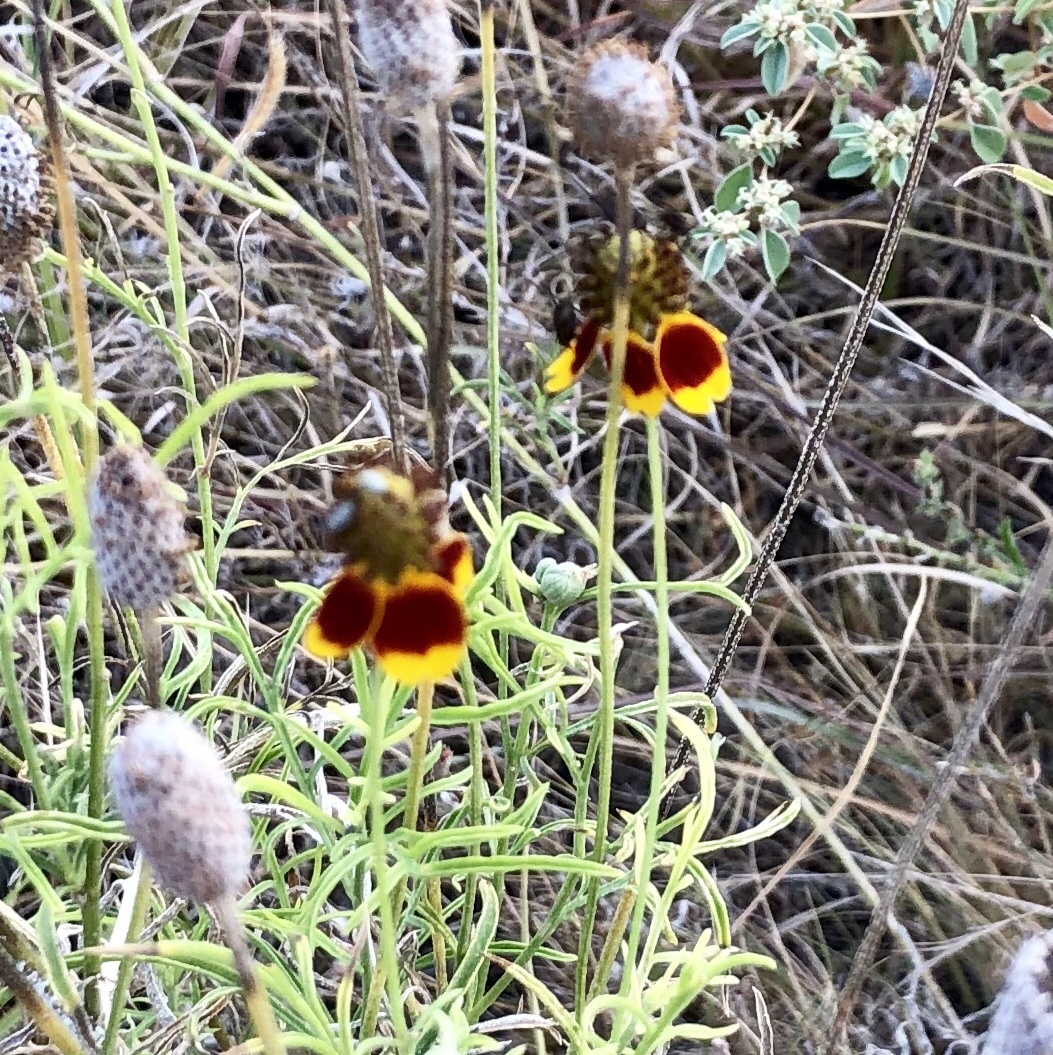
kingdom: Plantae
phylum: Tracheophyta
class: Magnoliopsida
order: Asterales
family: Asteraceae
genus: Ratibida
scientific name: Ratibida columnifera
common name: Prairie coneflower
